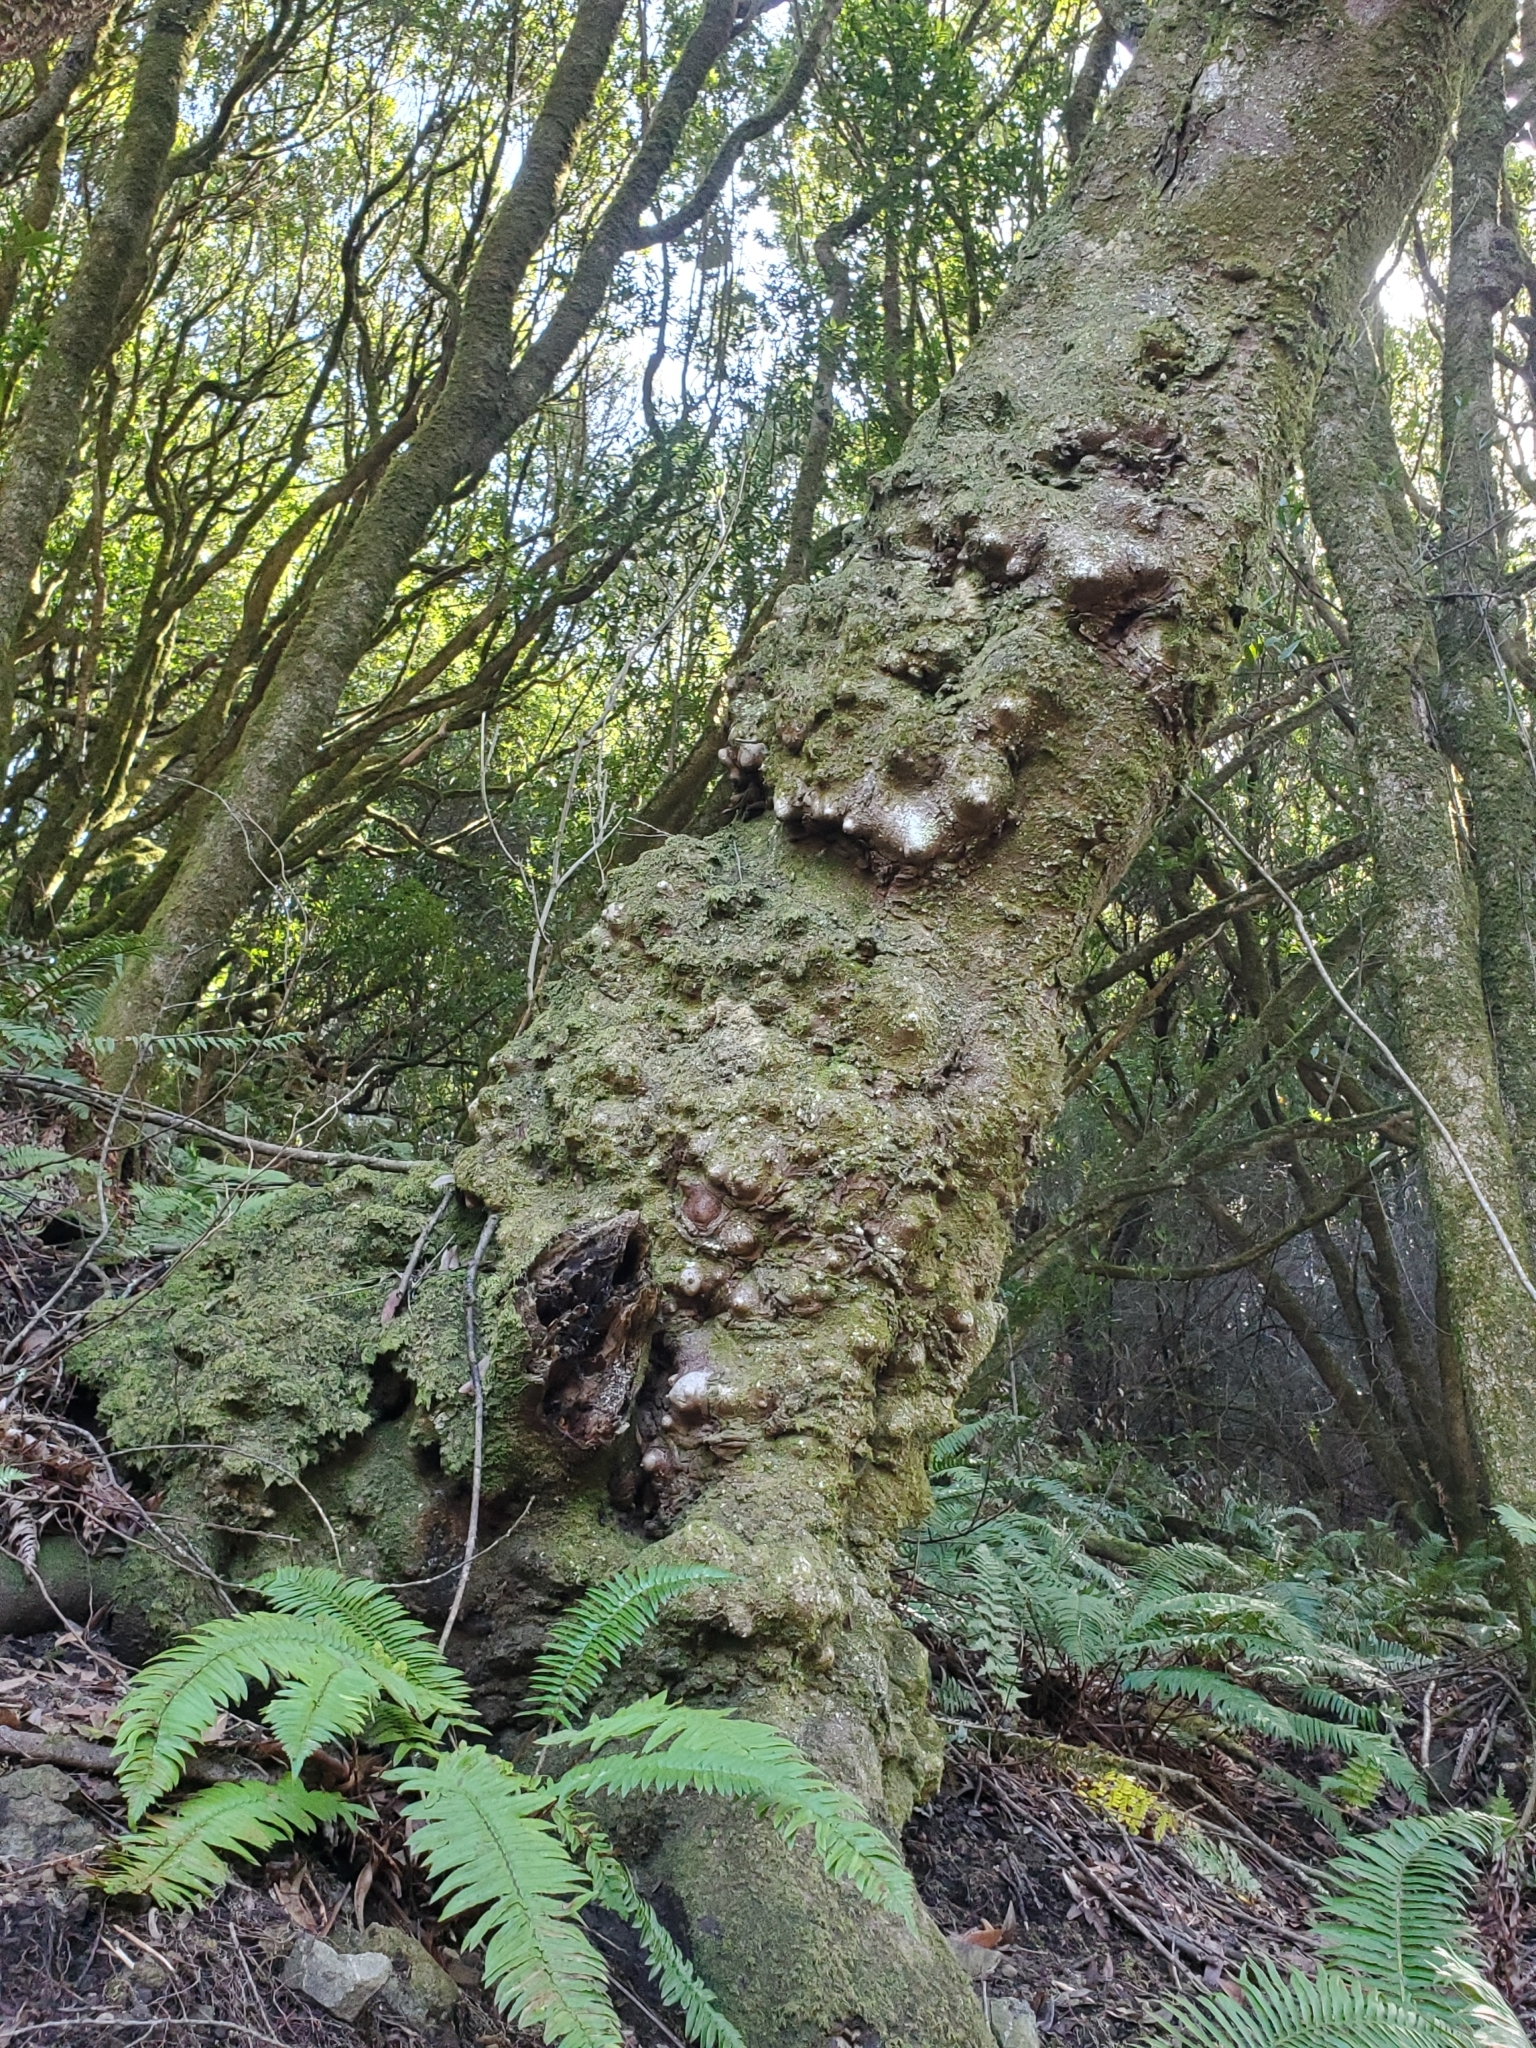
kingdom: Plantae
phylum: Tracheophyta
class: Magnoliopsida
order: Laurales
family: Lauraceae
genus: Umbellularia
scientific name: Umbellularia californica
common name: California bay
